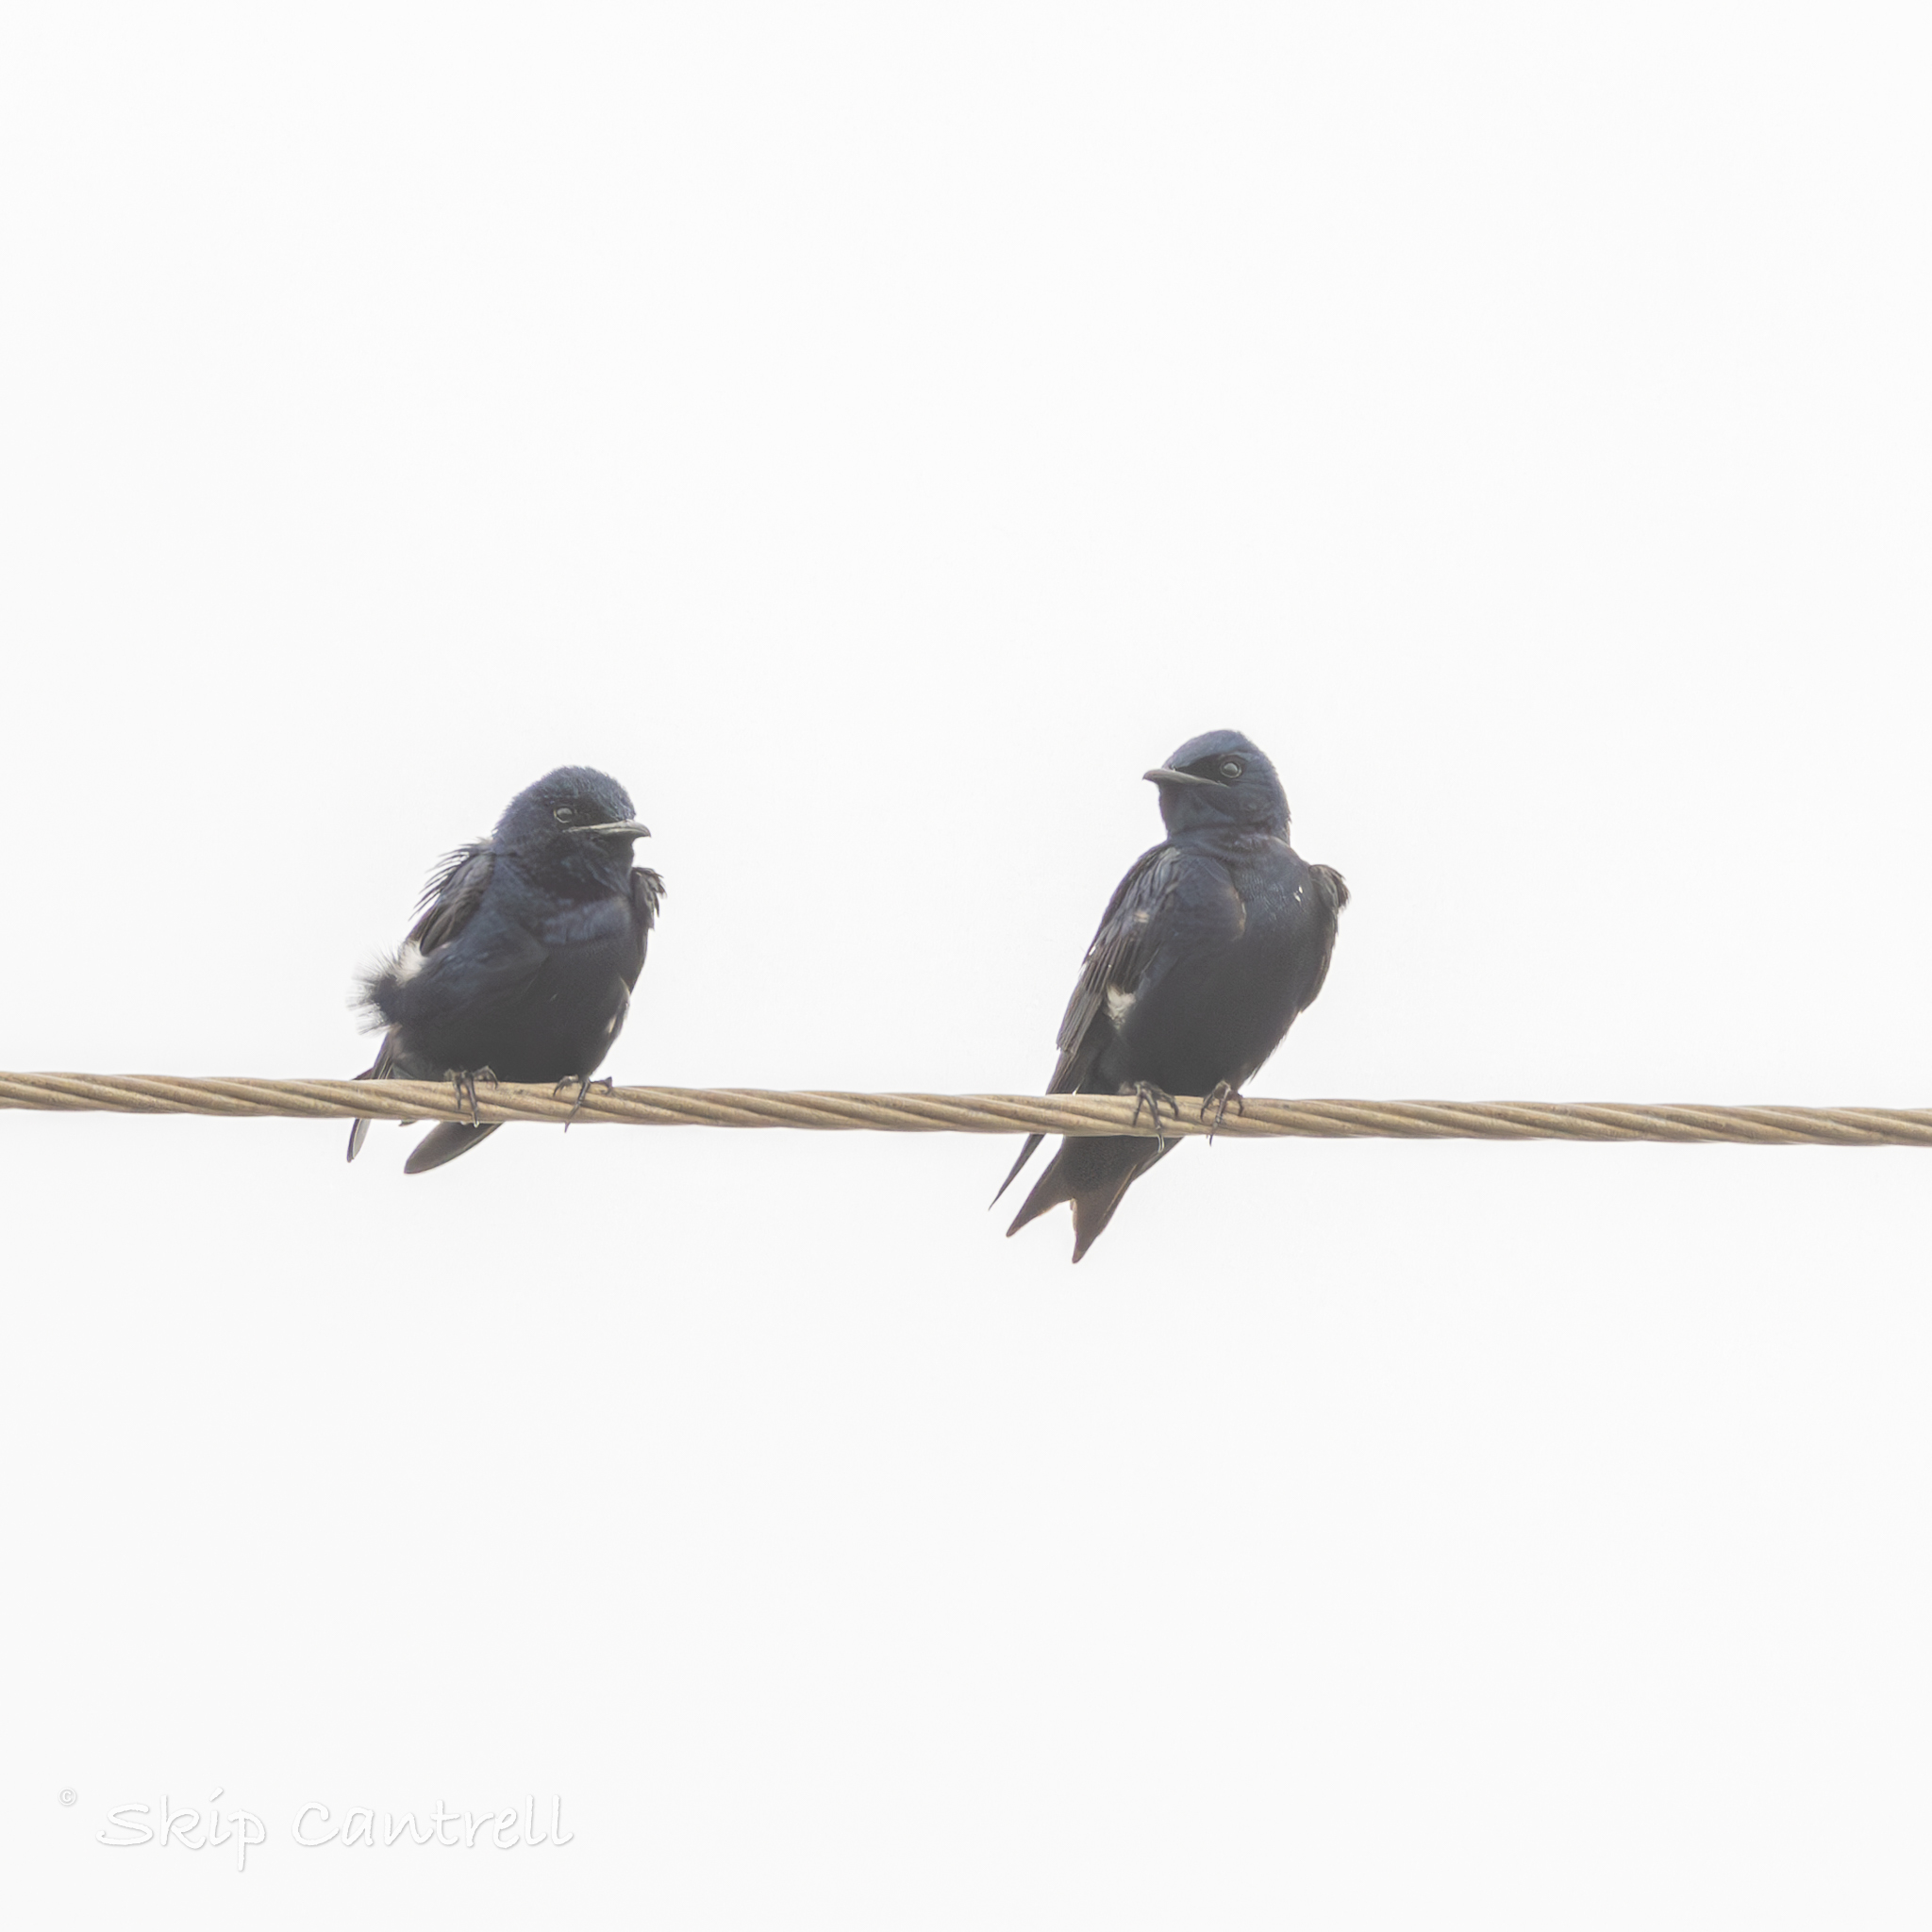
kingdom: Animalia
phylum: Chordata
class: Aves
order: Passeriformes
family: Hirundinidae
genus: Progne
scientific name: Progne subis
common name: Purple martin
